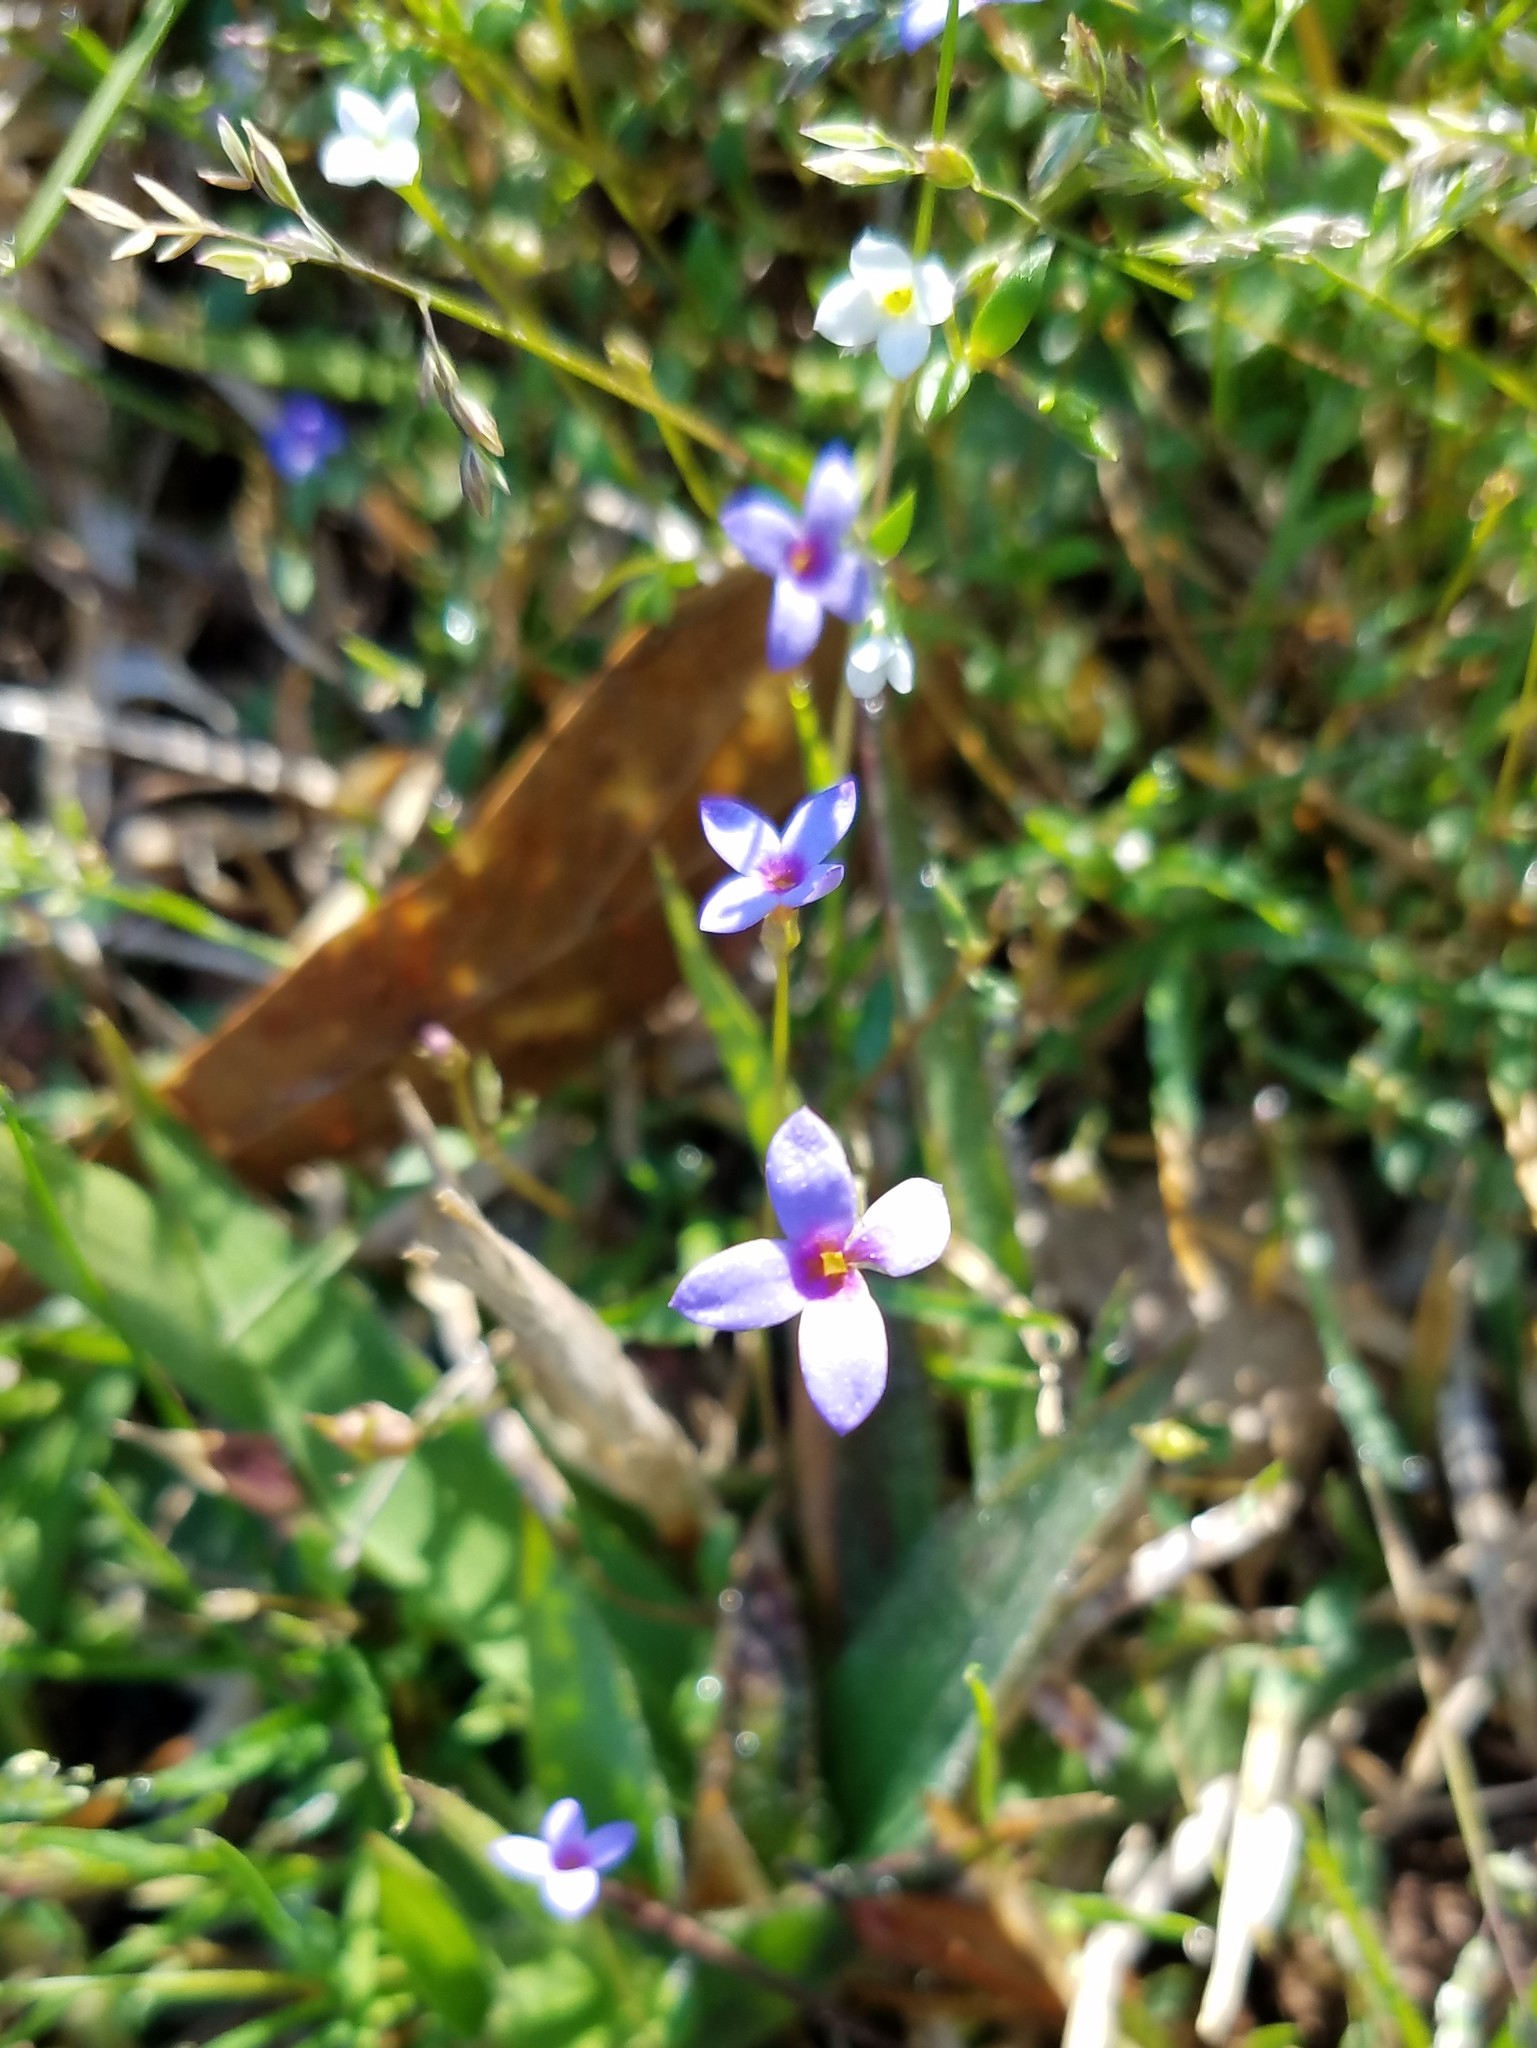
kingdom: Plantae
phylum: Tracheophyta
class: Magnoliopsida
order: Gentianales
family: Rubiaceae
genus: Houstonia
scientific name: Houstonia pusilla
